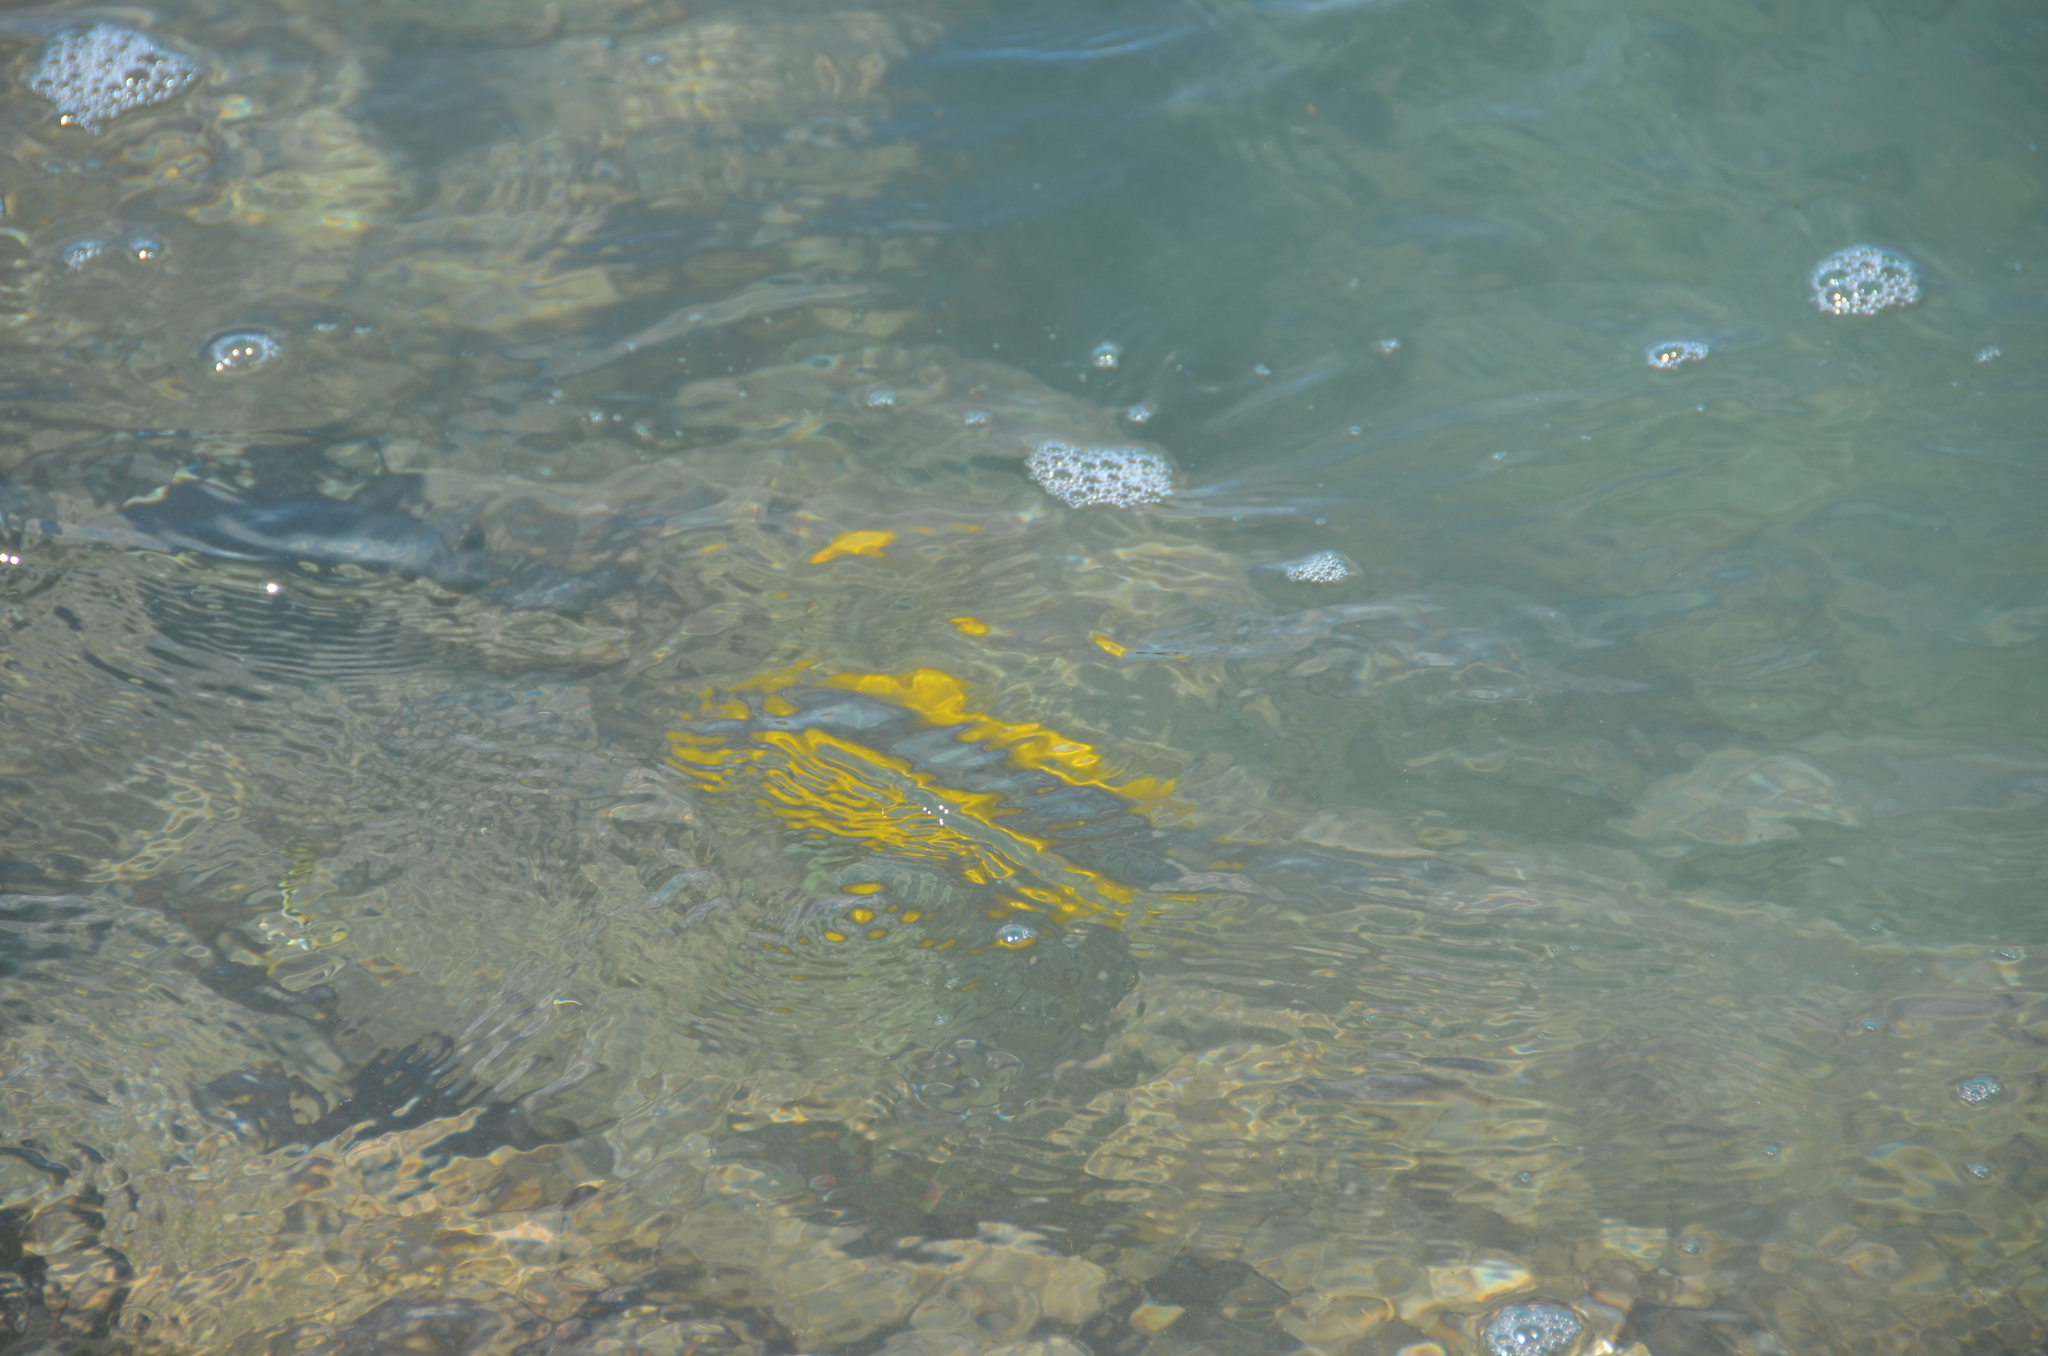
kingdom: Animalia
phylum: Chordata
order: Perciformes
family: Acanthuridae
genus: Zebrasoma
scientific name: Zebrasoma flavescens
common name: Yellow tang
